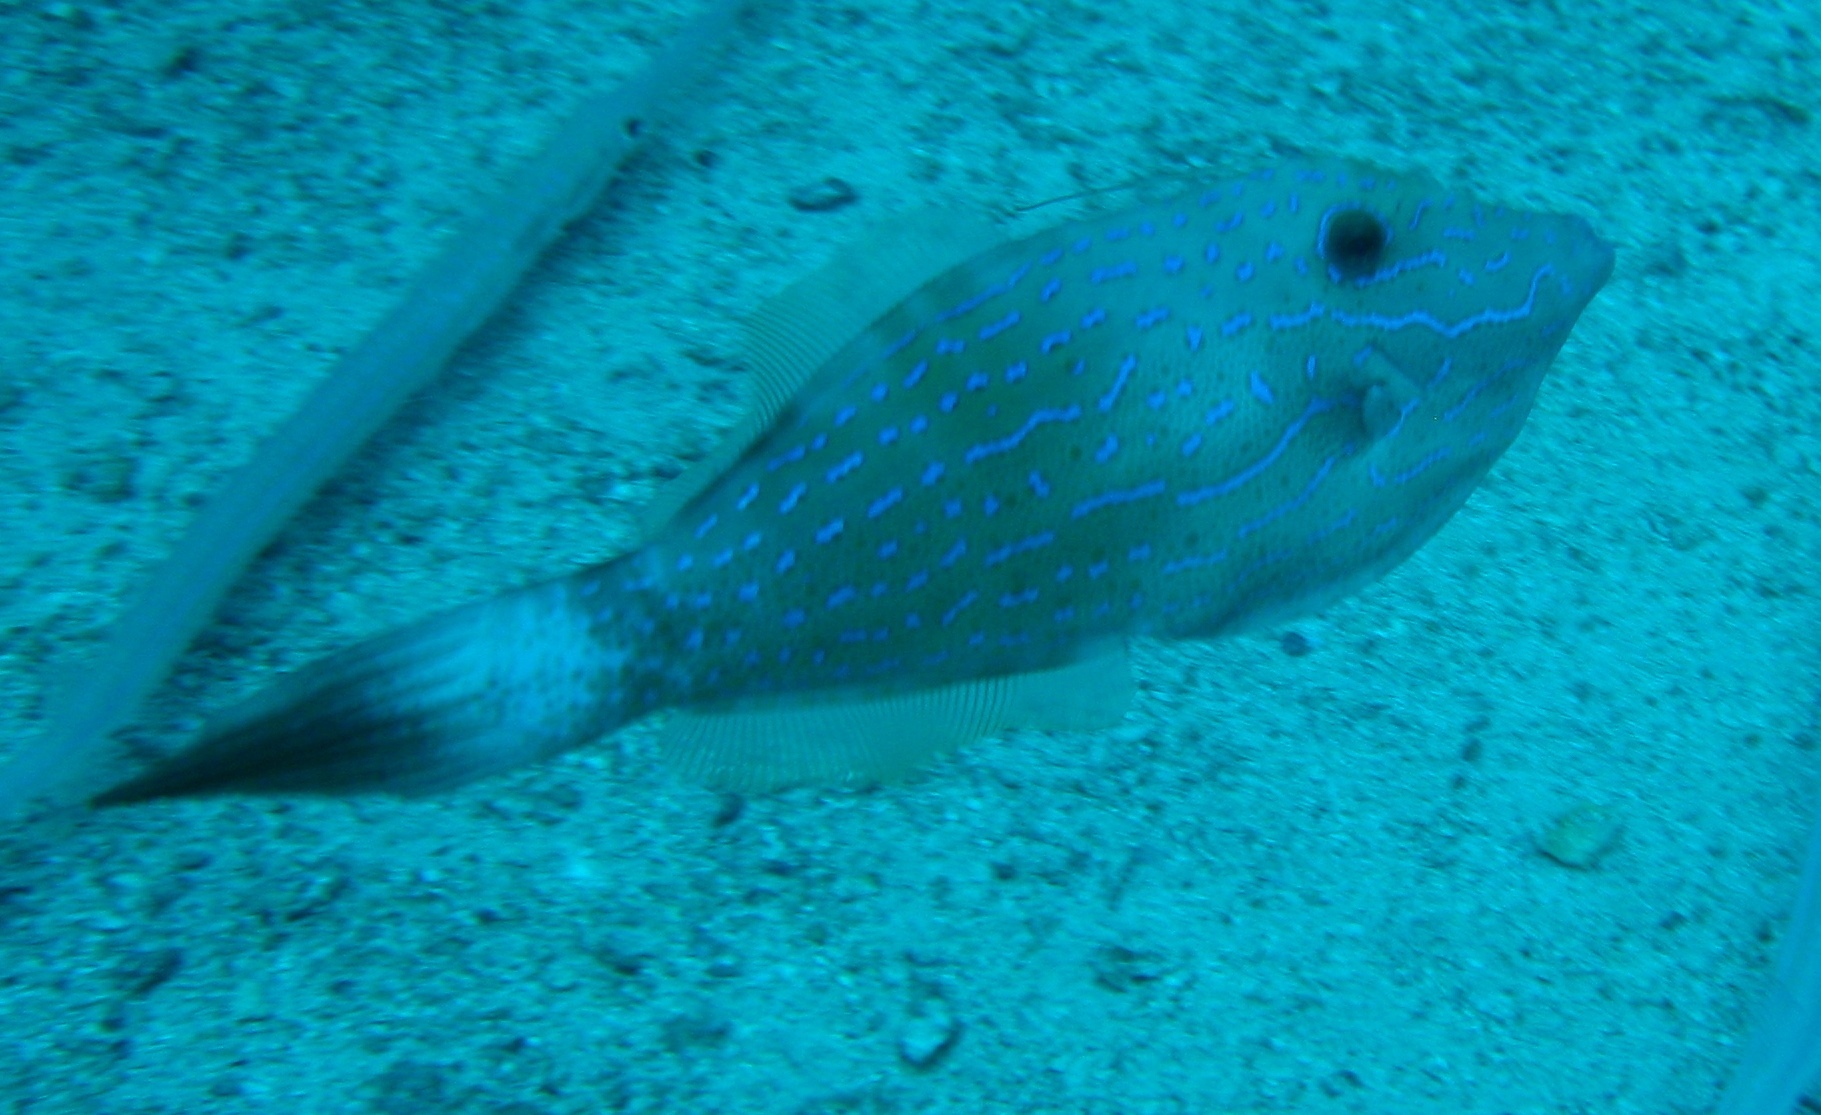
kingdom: Animalia
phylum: Chordata
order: Tetraodontiformes
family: Monacanthidae
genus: Aluterus
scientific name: Aluterus scriptus
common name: Scribbled leatherjacket filefish
